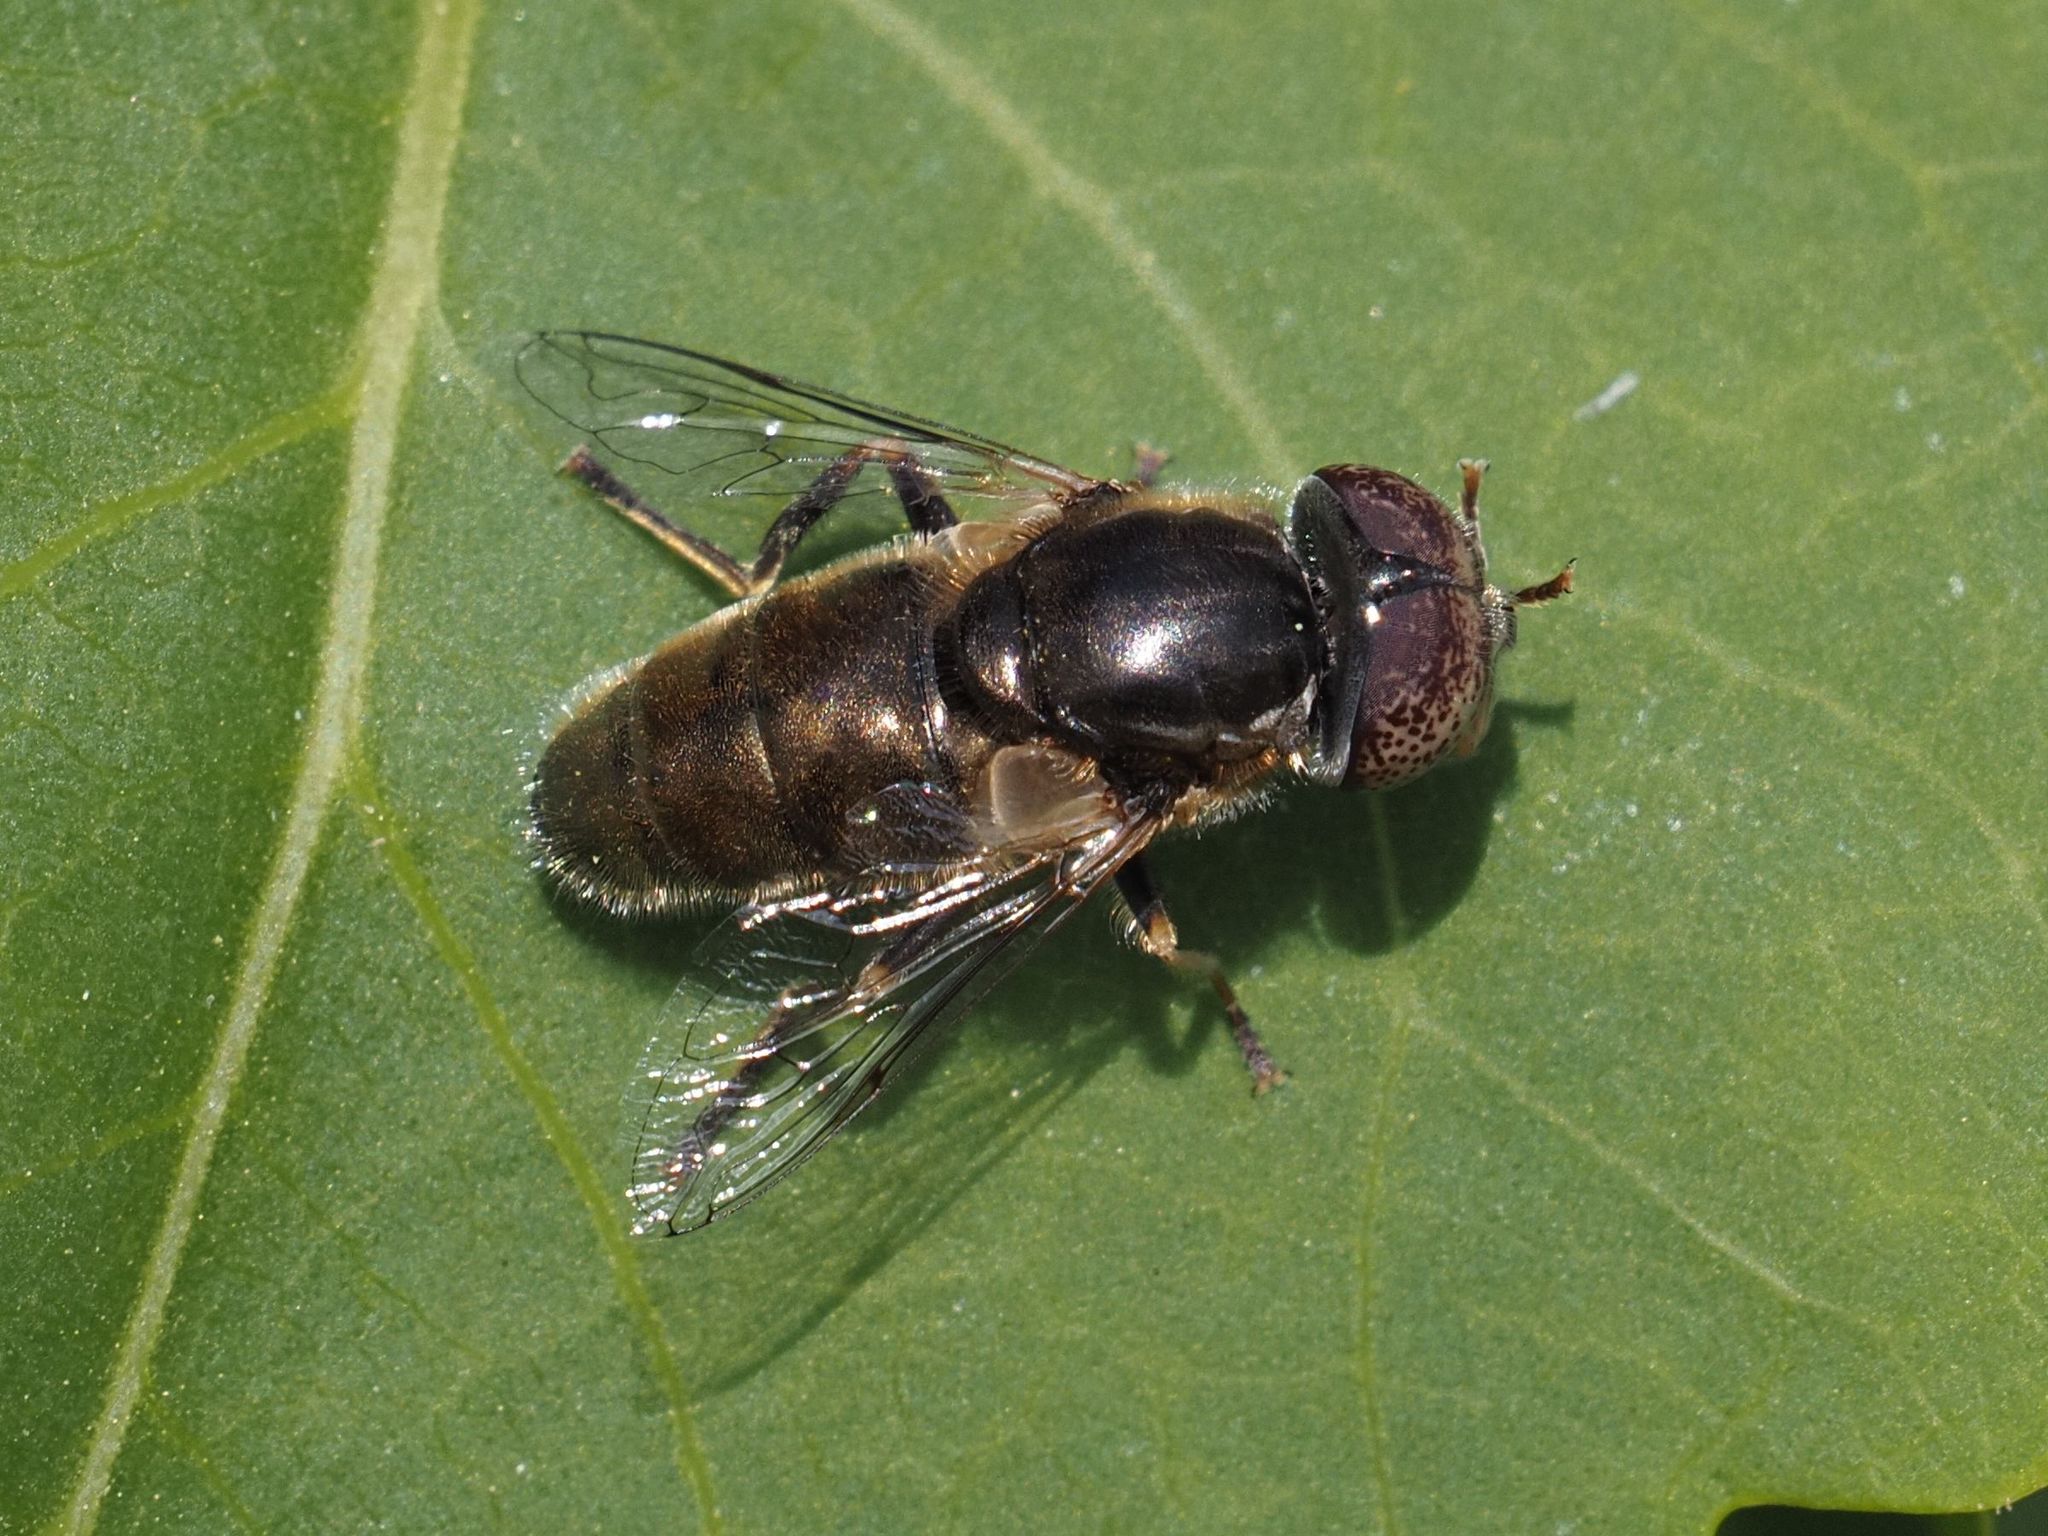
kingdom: Animalia
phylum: Arthropoda
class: Insecta
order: Diptera
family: Syrphidae
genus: Eristalinus
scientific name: Eristalinus aeneus
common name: Syrphid fly
